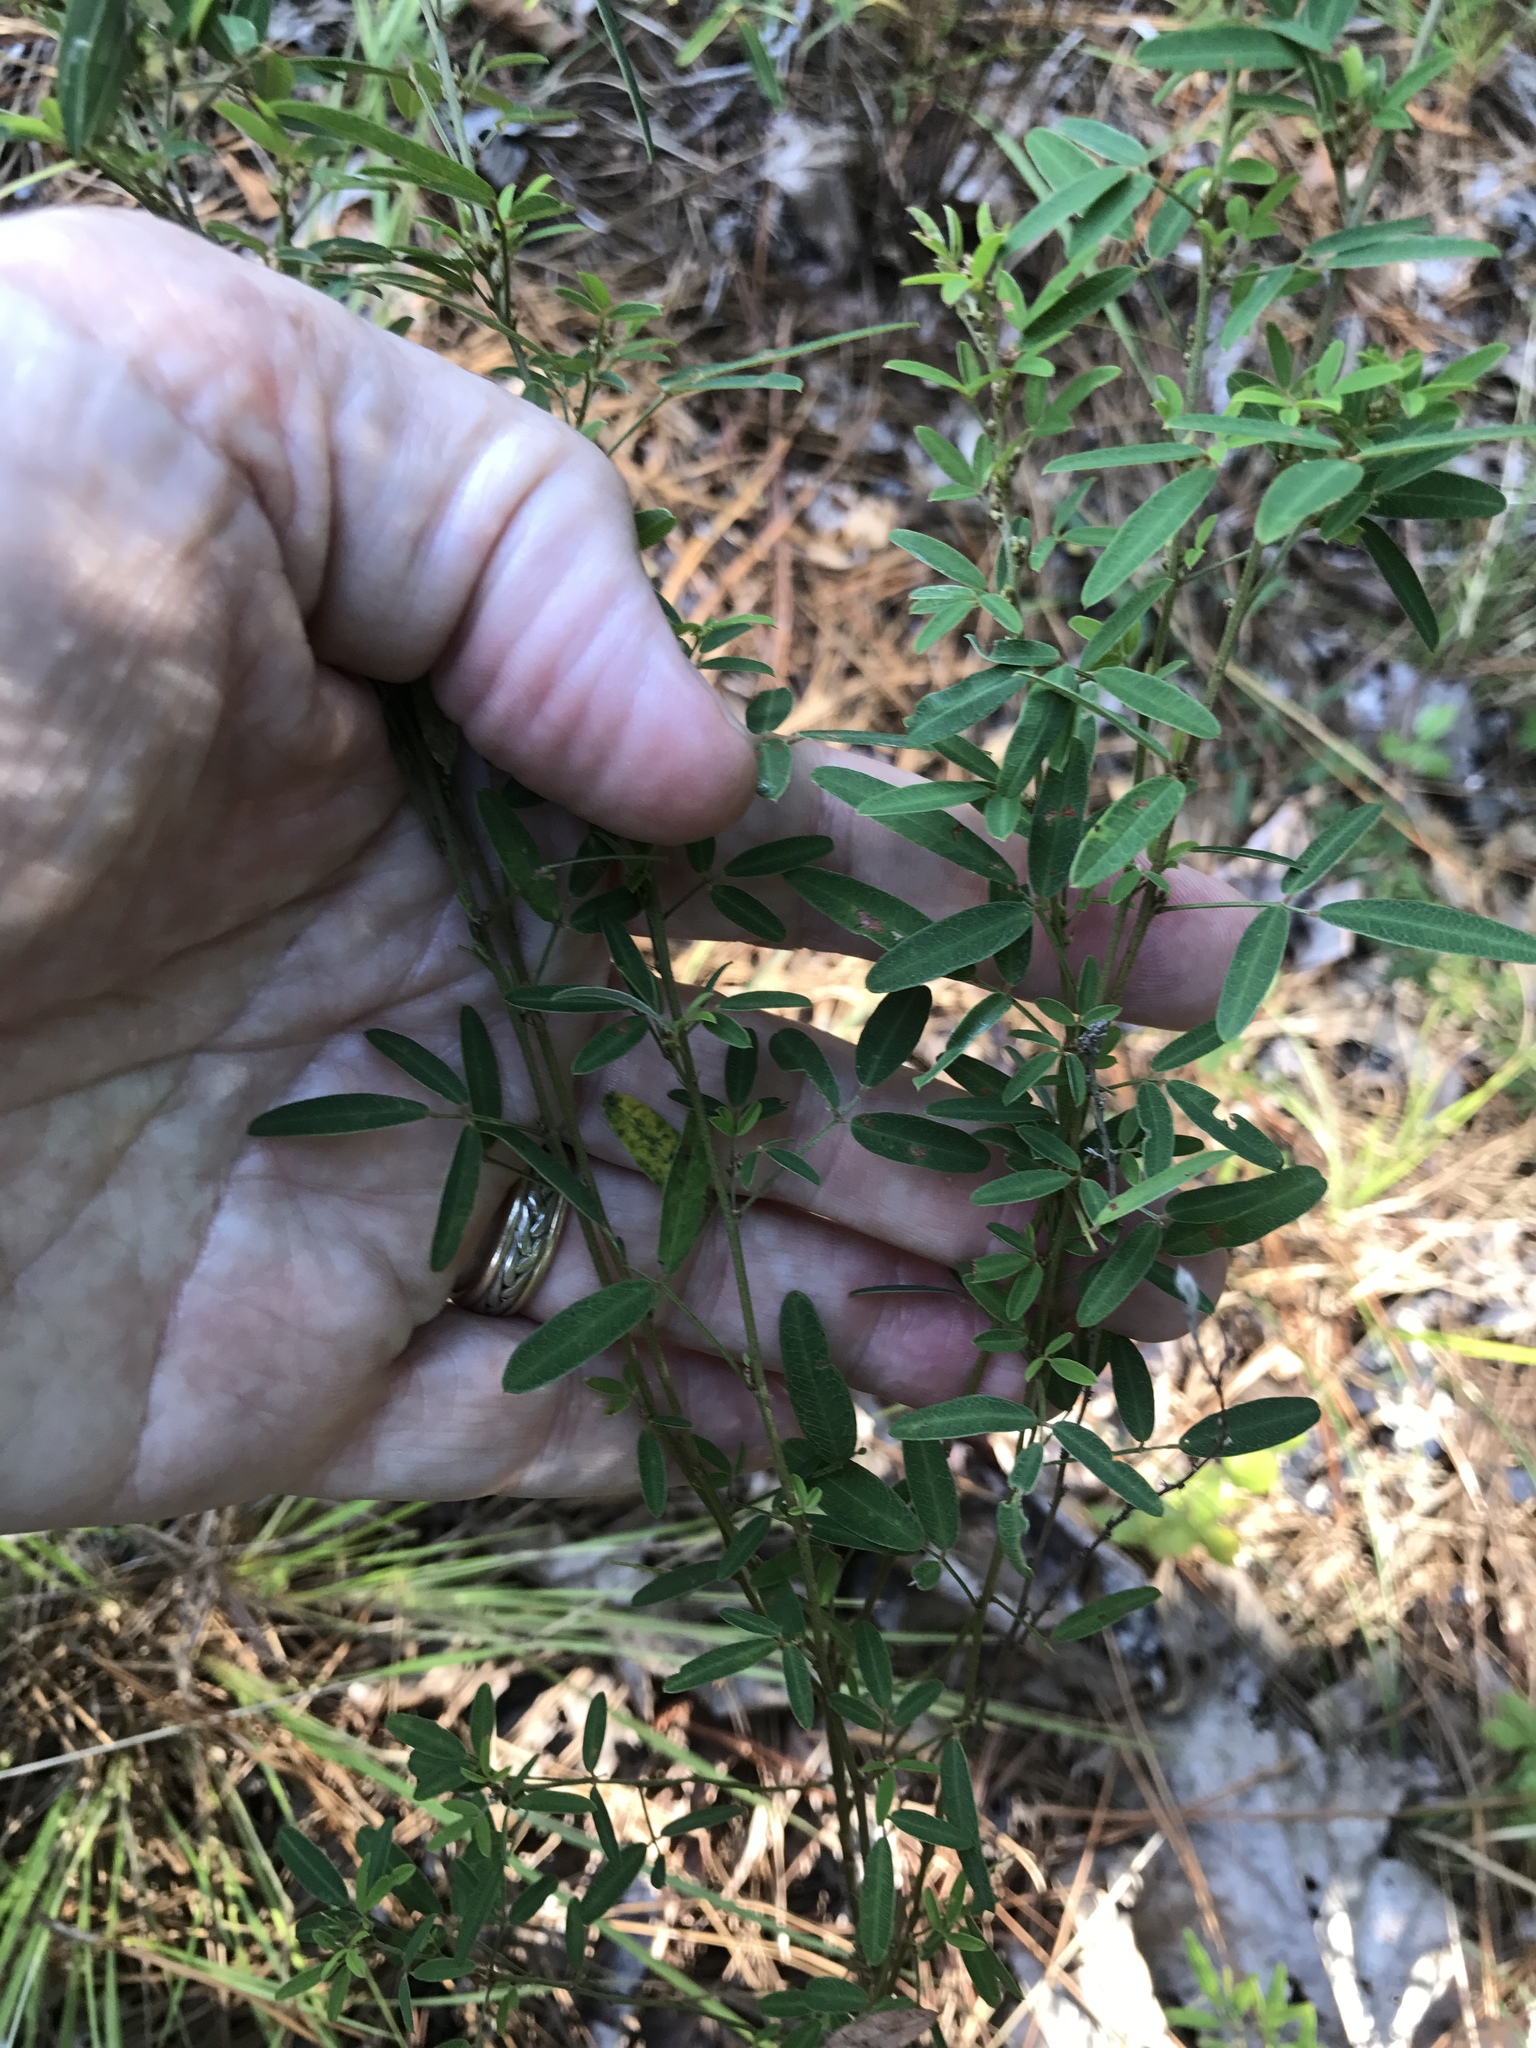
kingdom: Plantae
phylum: Tracheophyta
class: Magnoliopsida
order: Fabales
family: Fabaceae
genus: Lespedeza
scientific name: Lespedeza virginica
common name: Slender bush-clover
